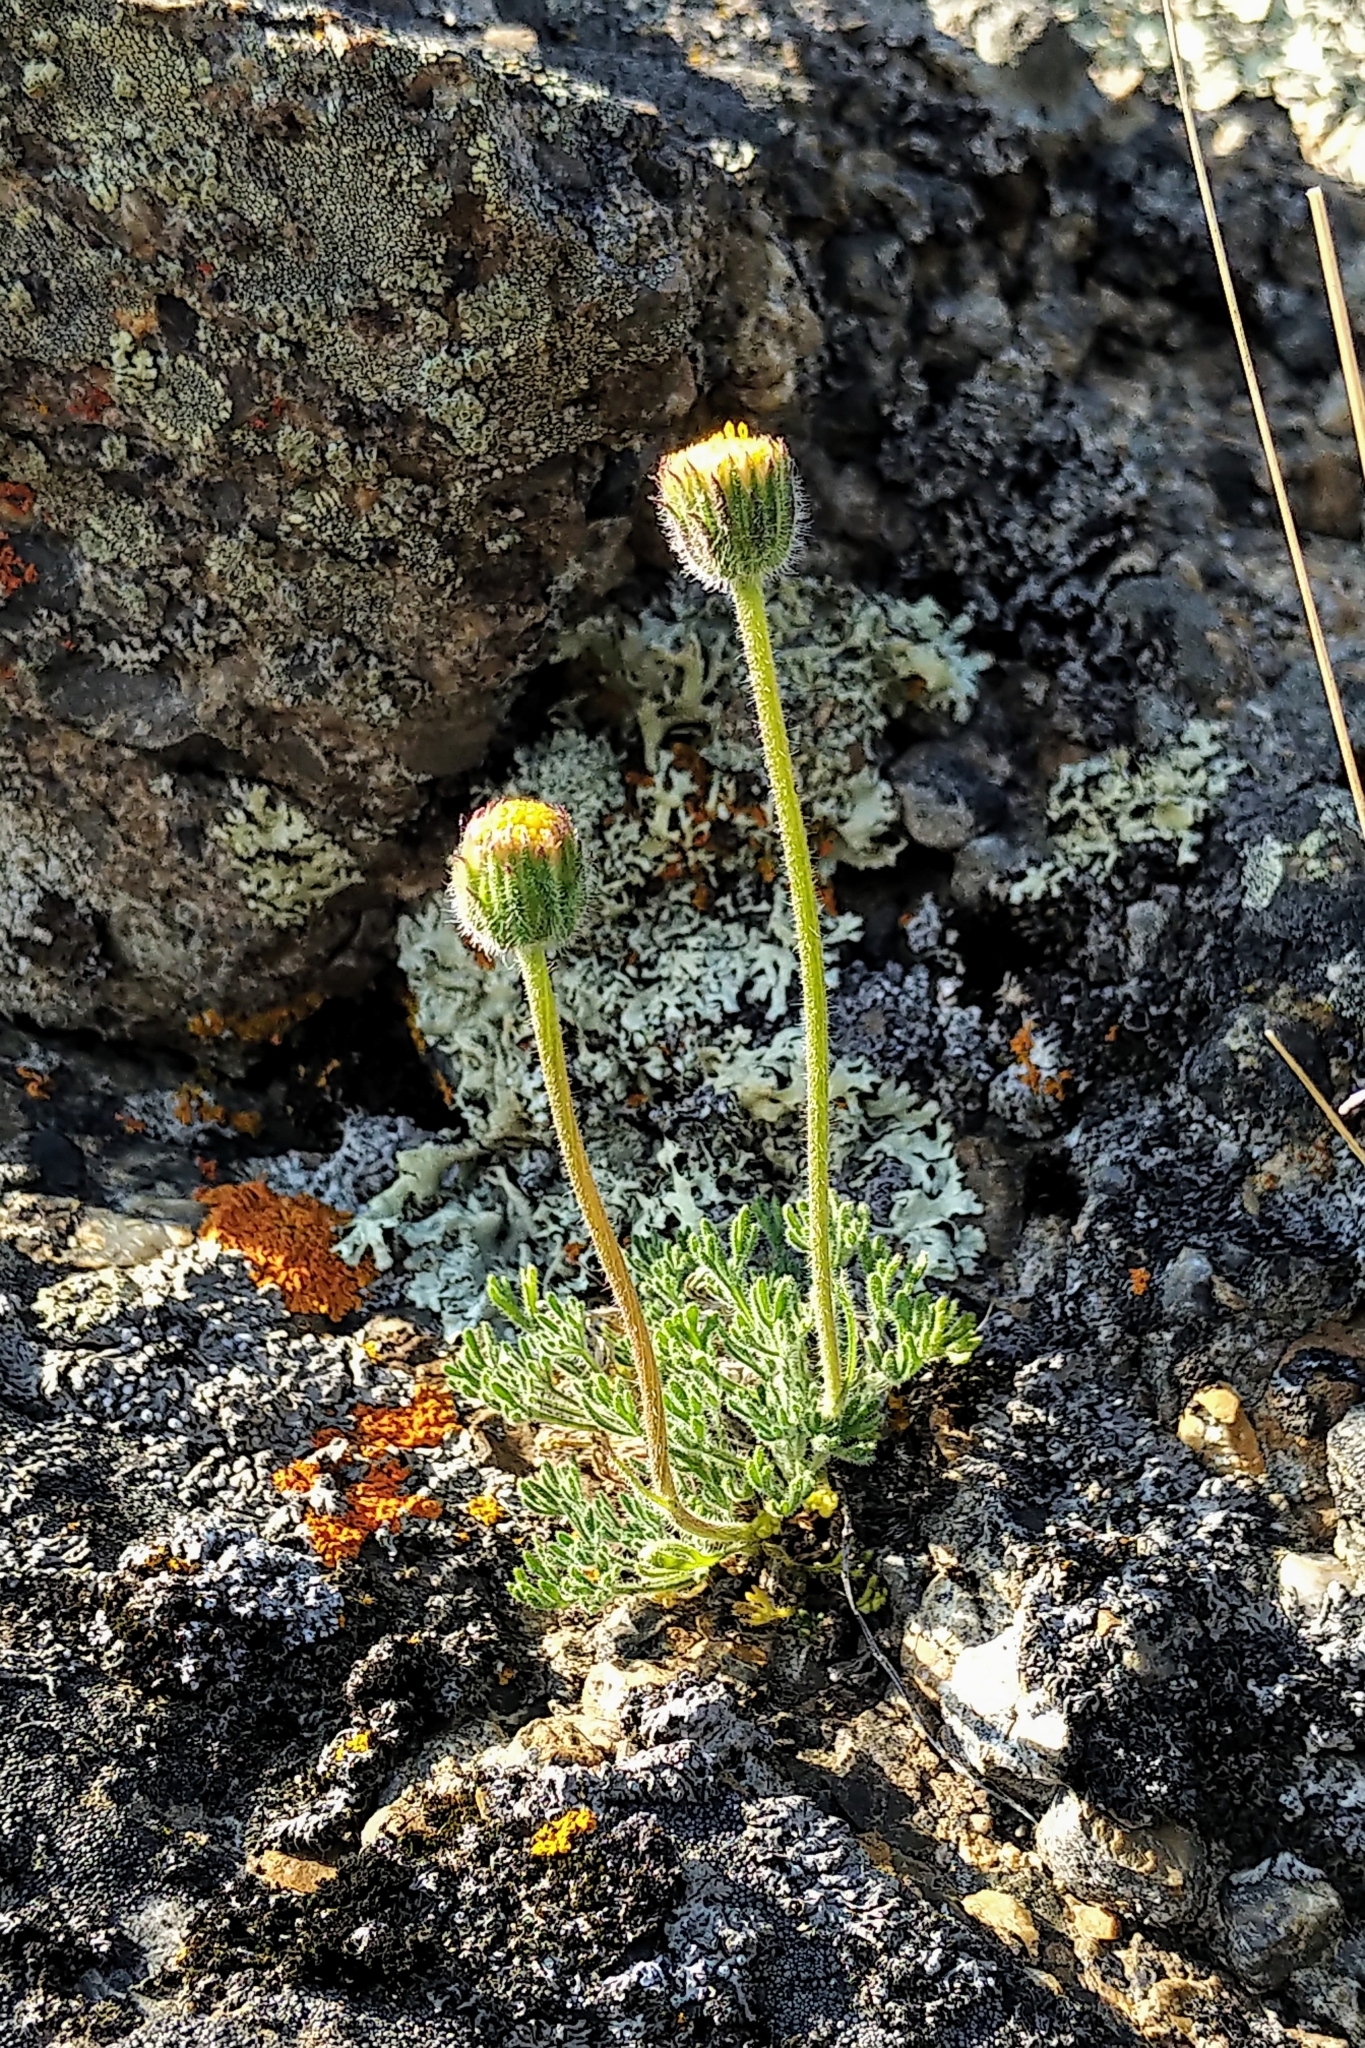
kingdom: Plantae
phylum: Tracheophyta
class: Magnoliopsida
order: Asterales
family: Asteraceae
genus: Erigeron
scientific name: Erigeron compositus
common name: Dwarf mountain fleabane
